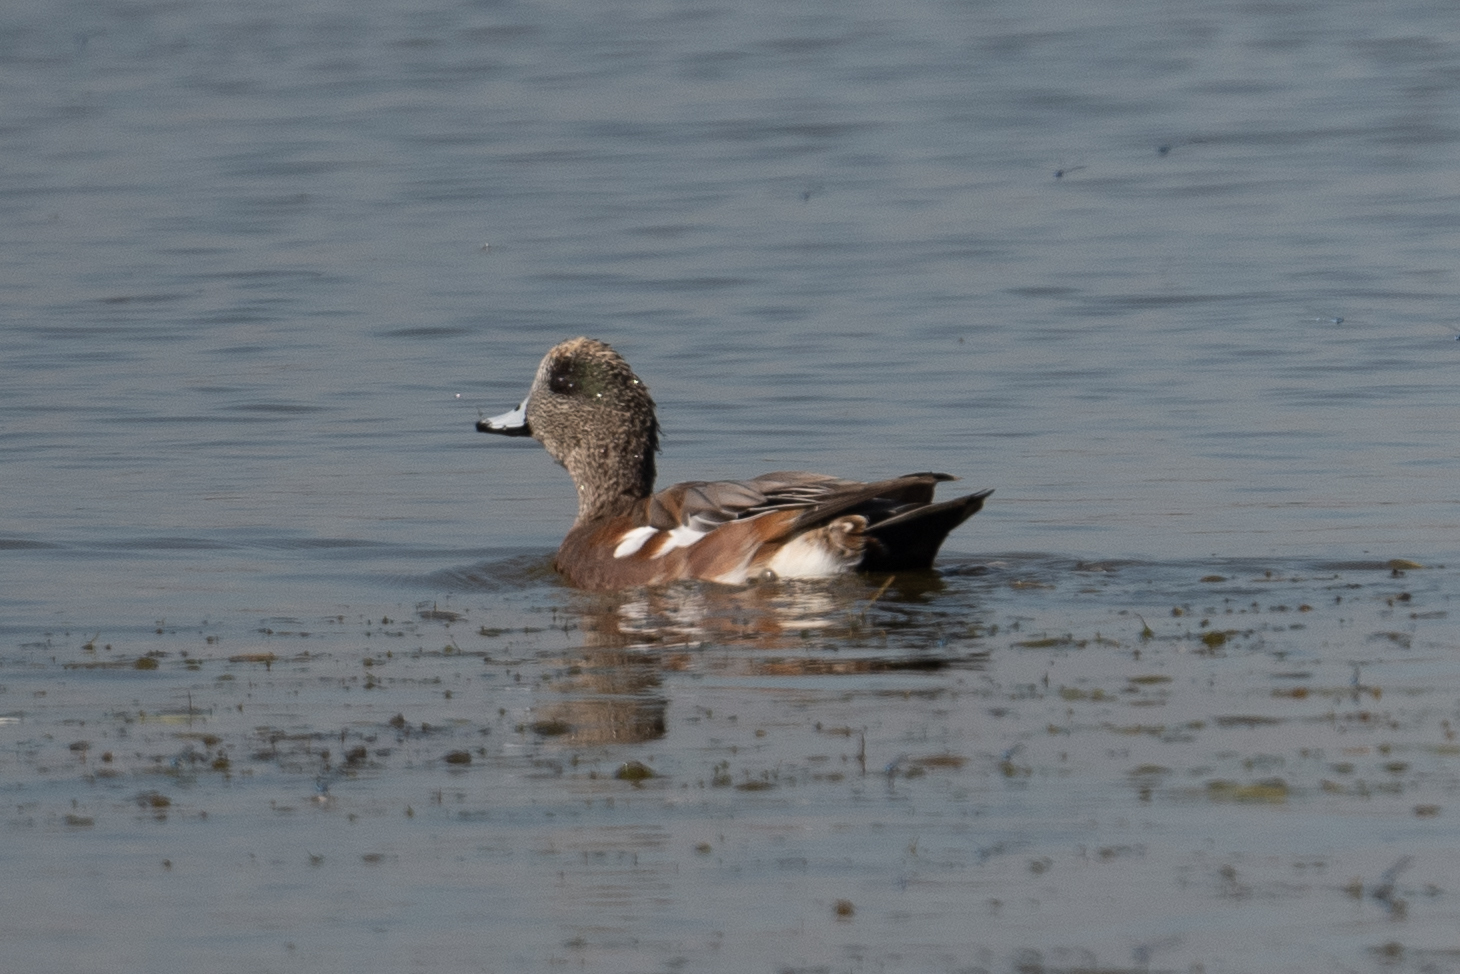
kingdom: Animalia
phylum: Chordata
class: Aves
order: Anseriformes
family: Anatidae
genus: Mareca
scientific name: Mareca americana
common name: American wigeon
